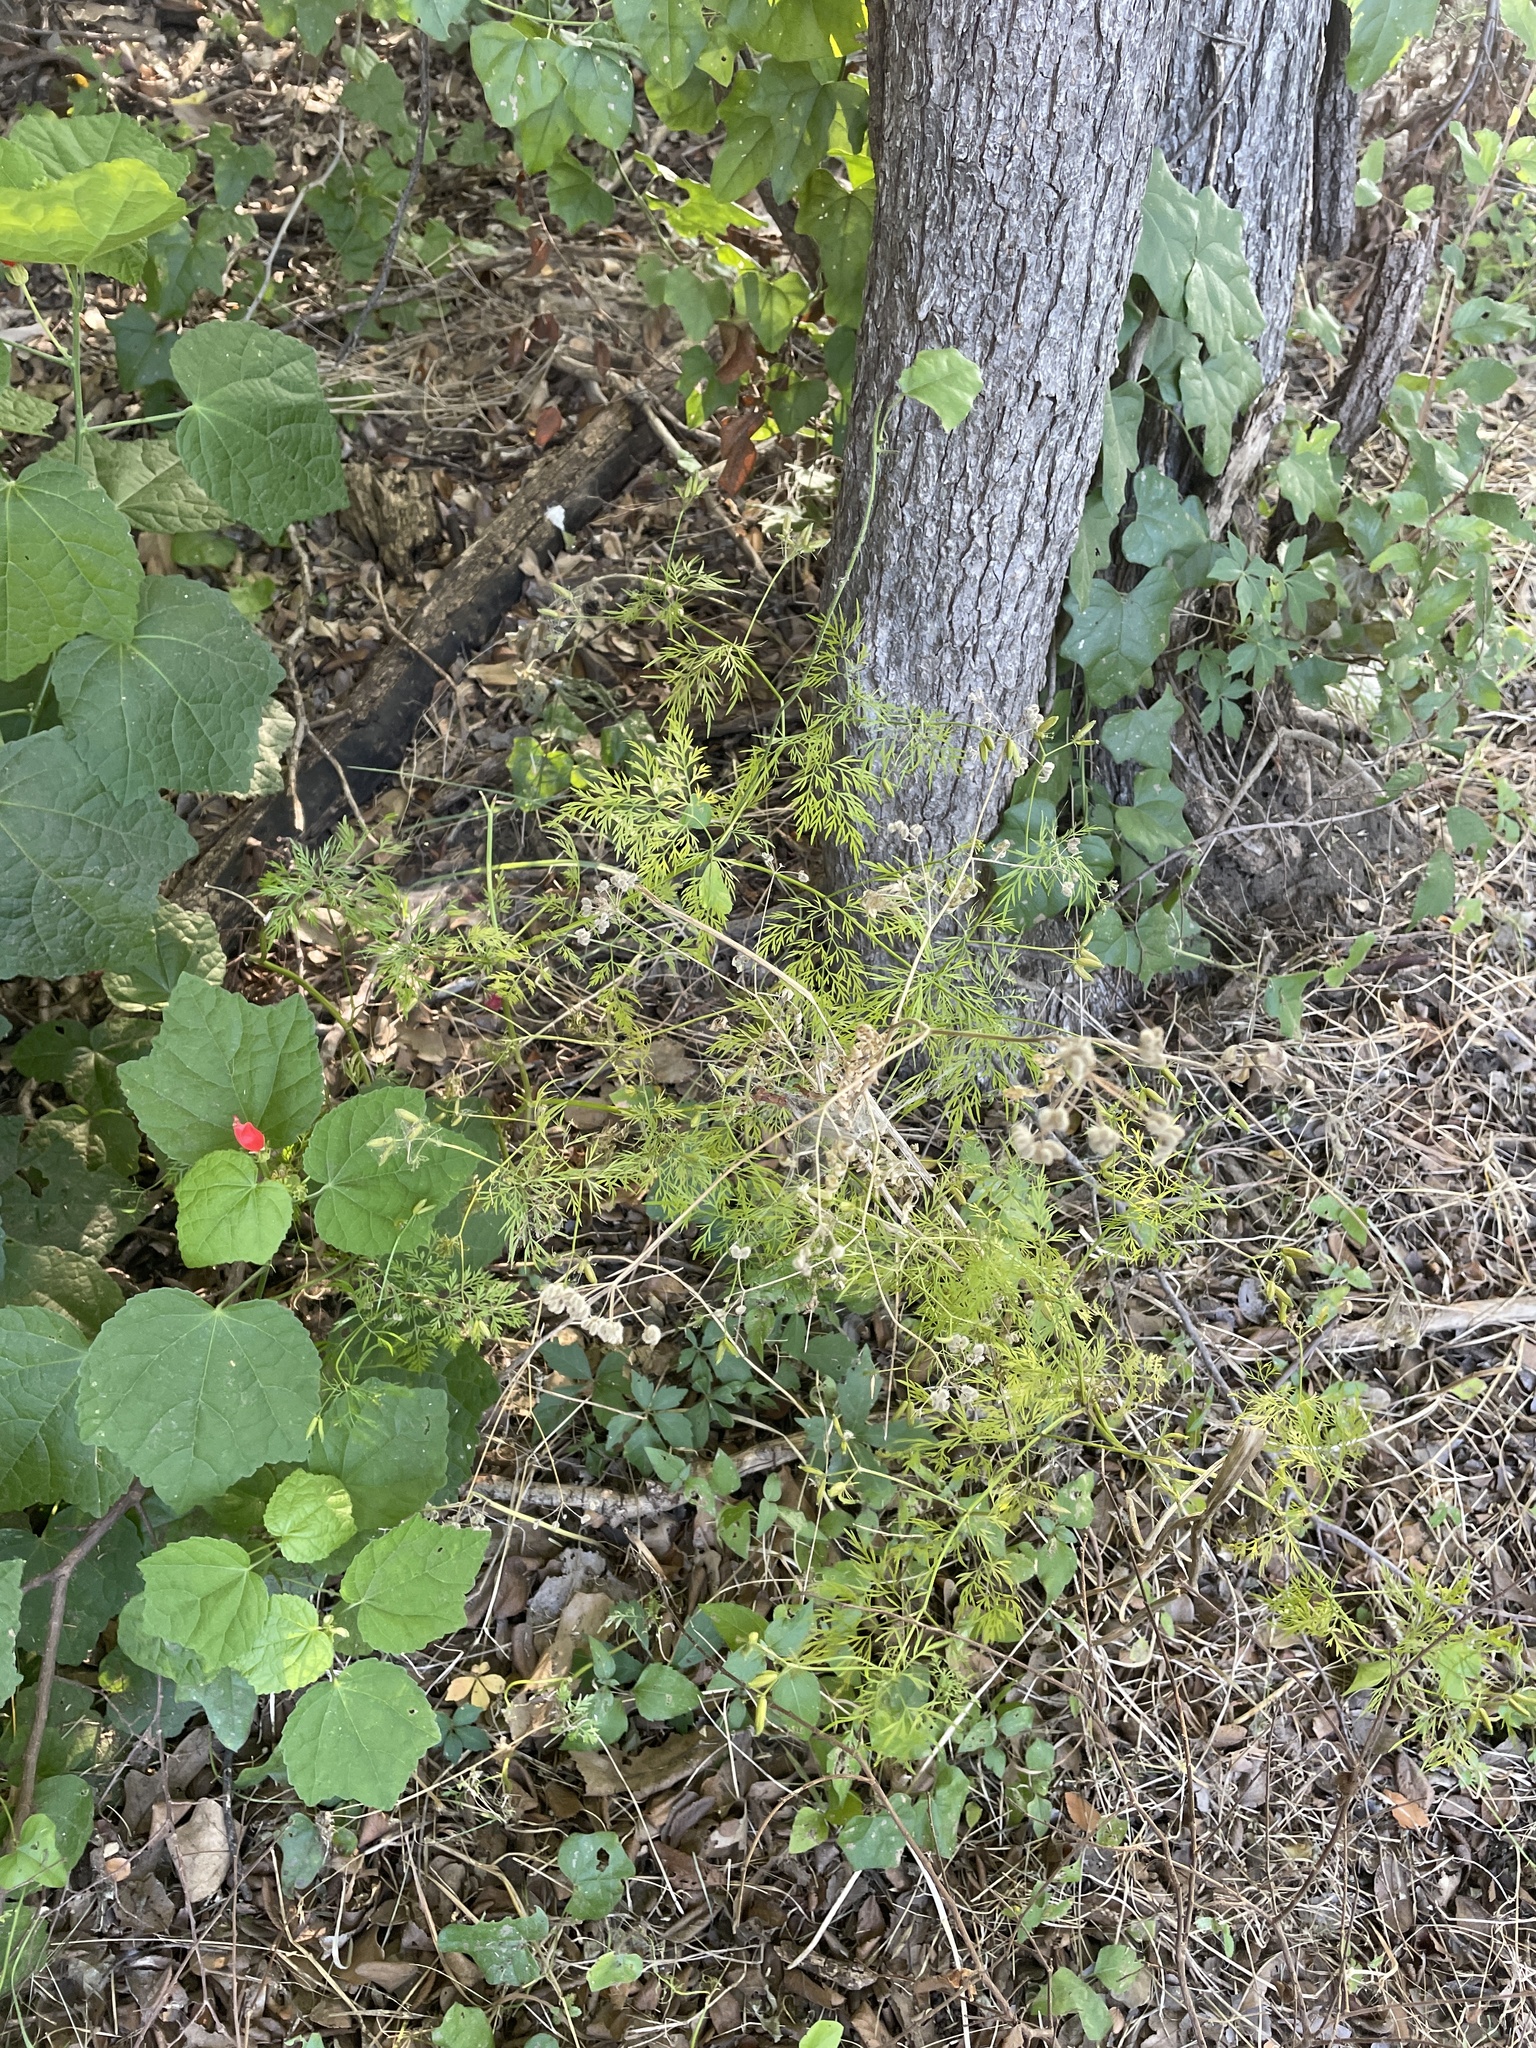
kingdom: Plantae
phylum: Tracheophyta
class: Magnoliopsida
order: Apiales
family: Apiaceae
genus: Trepocarpus
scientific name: Trepocarpus aethusae
